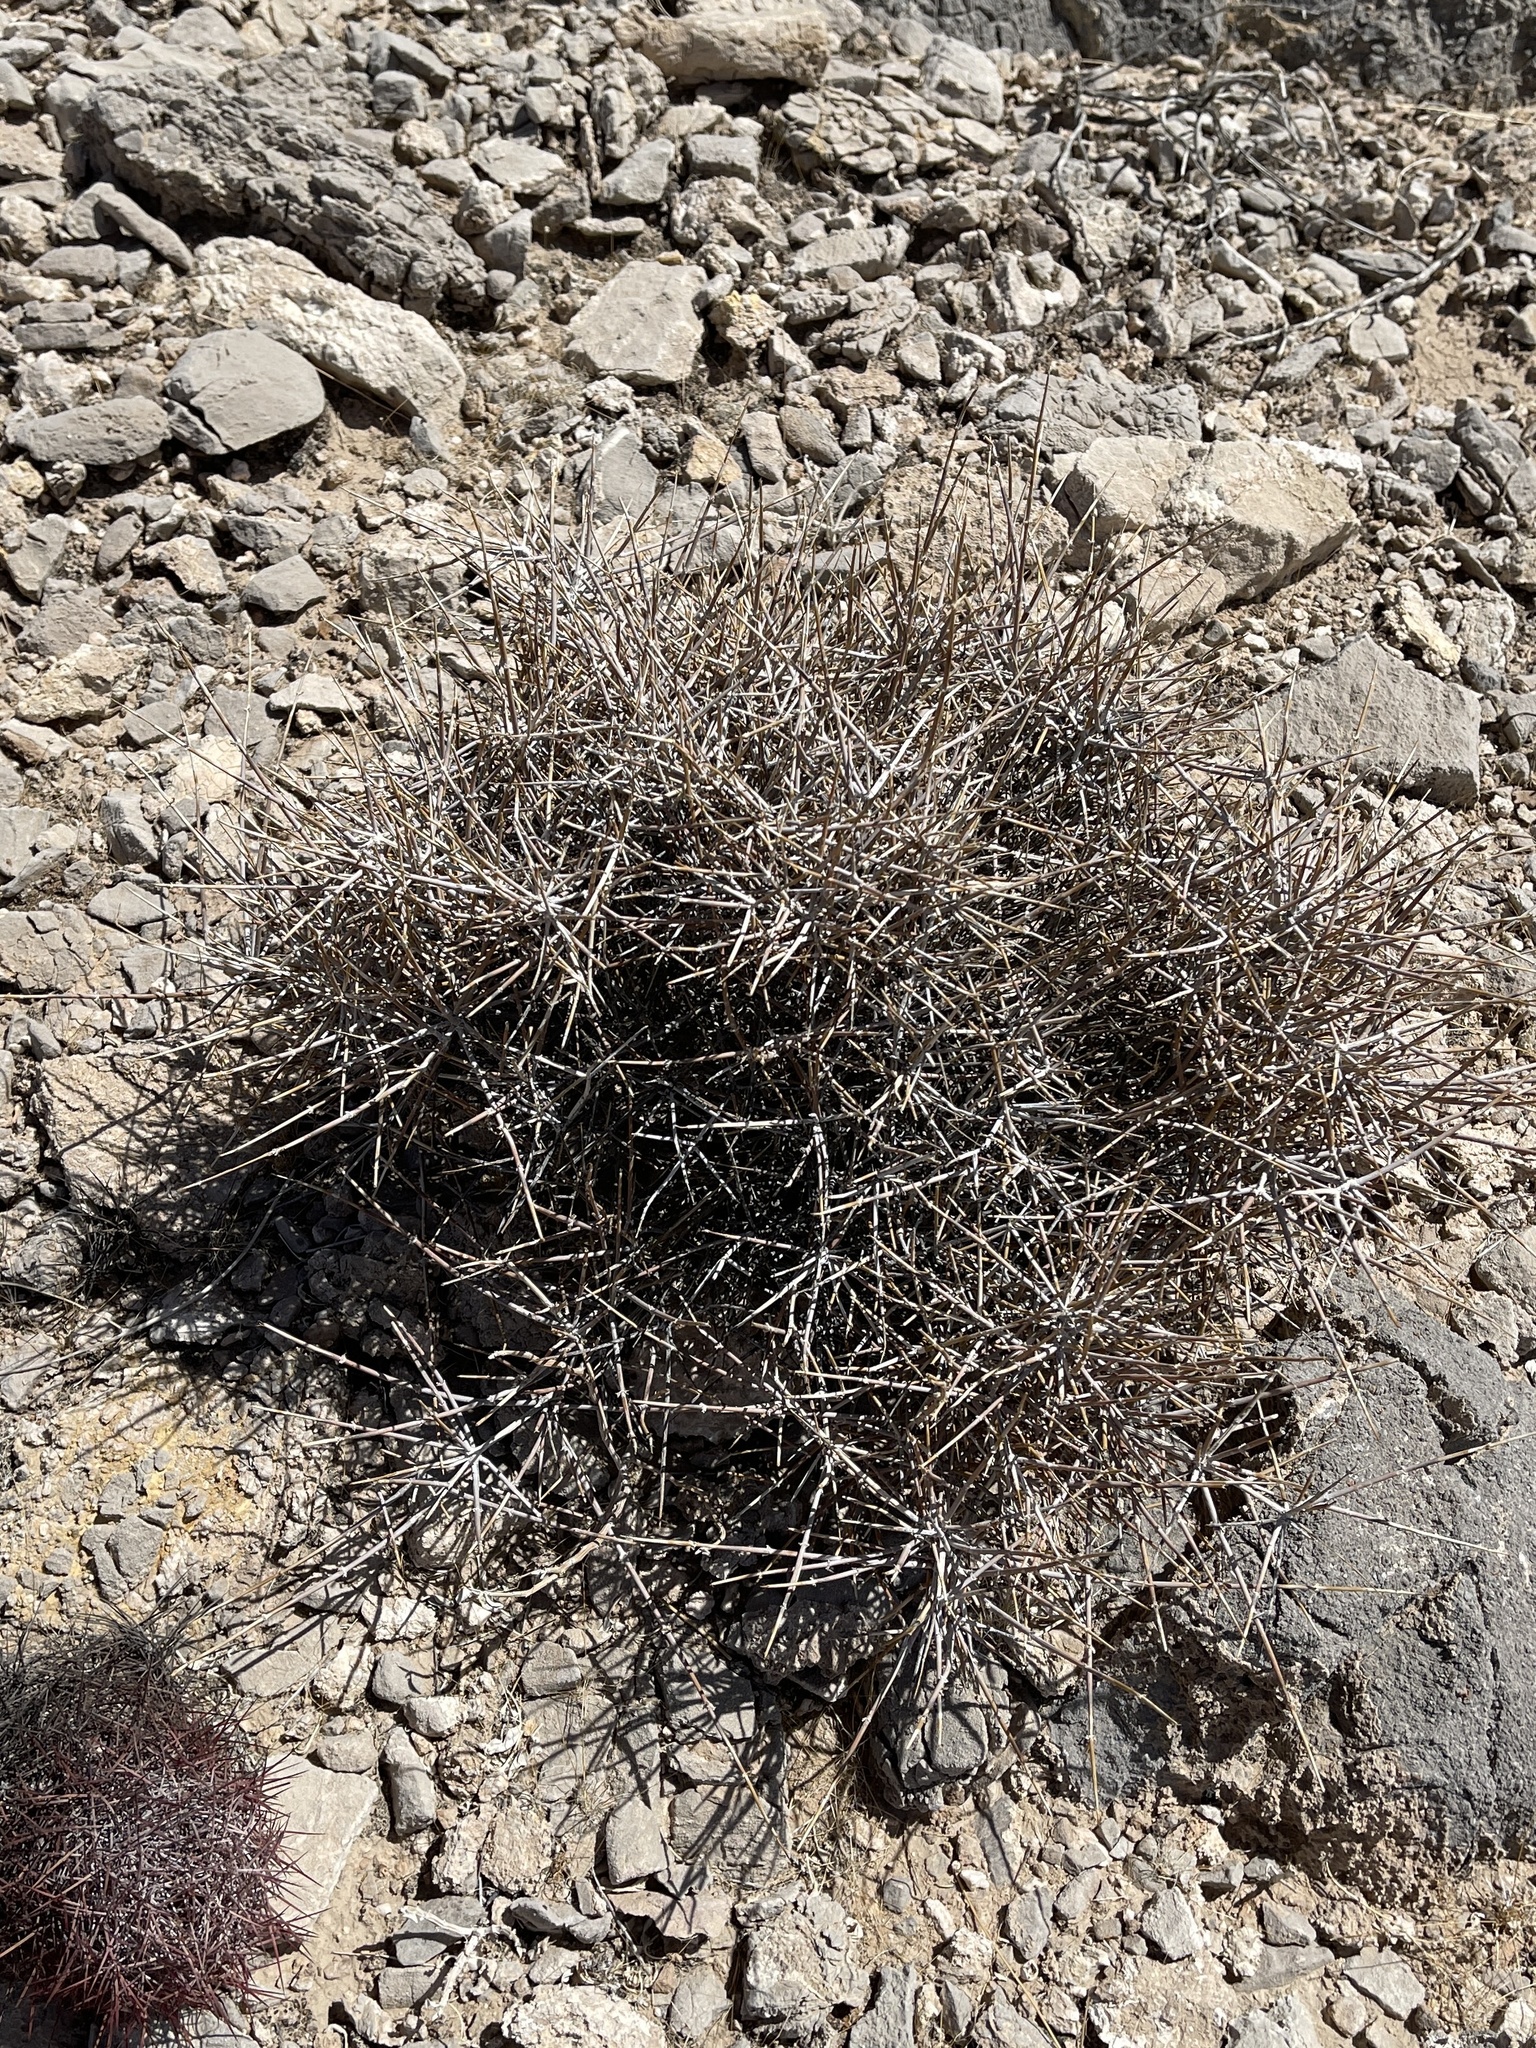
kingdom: Plantae
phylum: Tracheophyta
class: Gnetopsida
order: Ephedrales
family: Ephedraceae
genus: Ephedra
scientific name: Ephedra nevadensis
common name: Gray ephedra
